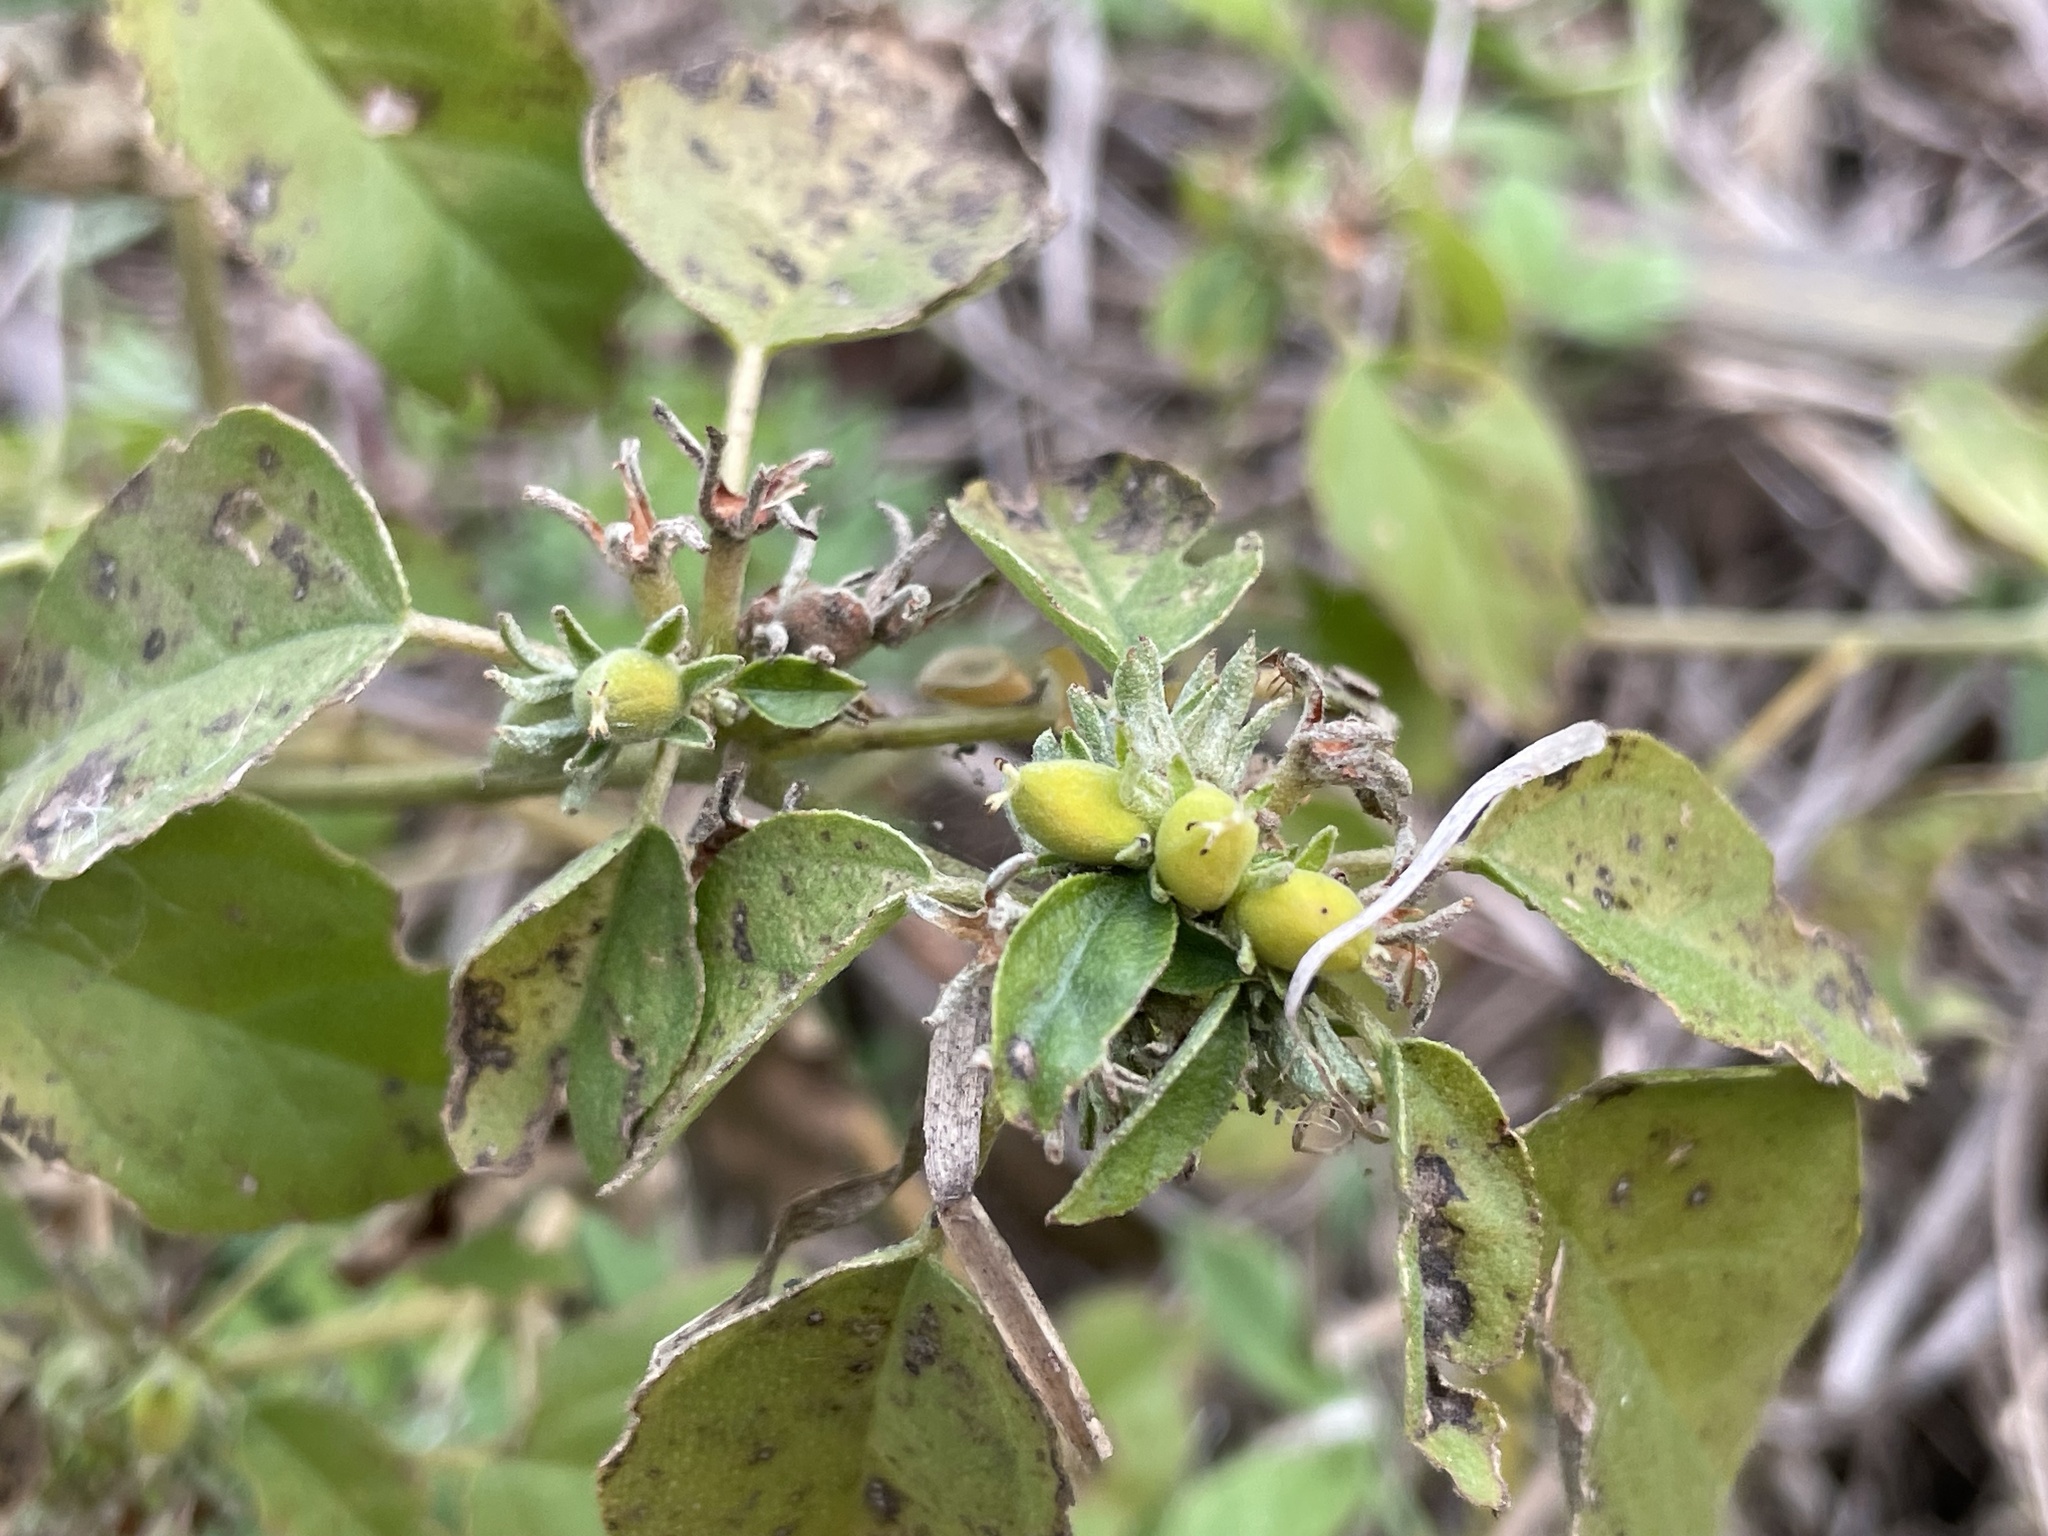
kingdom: Plantae
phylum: Tracheophyta
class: Magnoliopsida
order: Malpighiales
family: Euphorbiaceae
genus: Croton
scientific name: Croton monanthogynus
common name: One-seed croton
